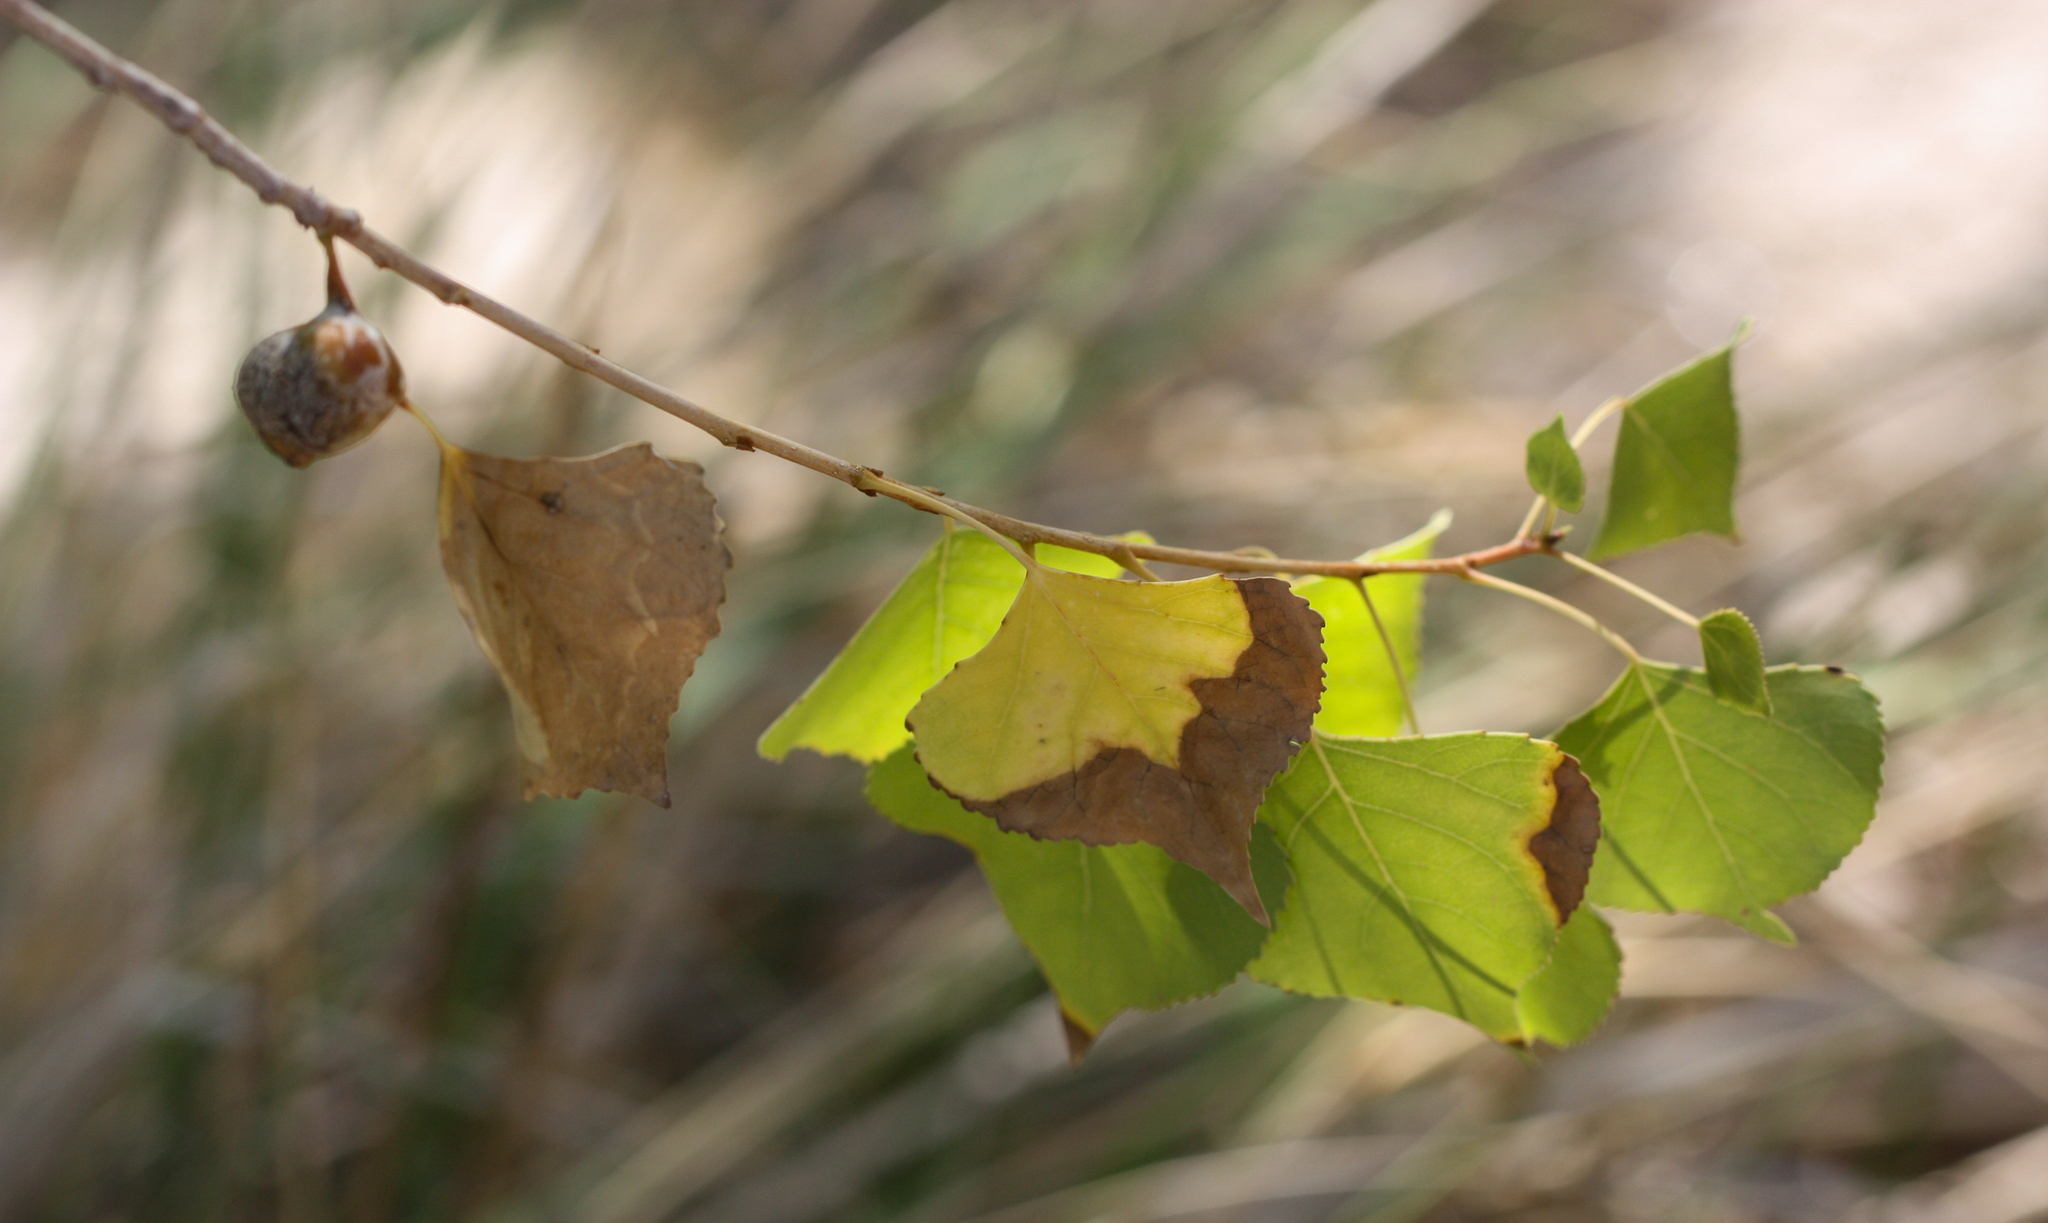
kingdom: Plantae
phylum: Tracheophyta
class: Magnoliopsida
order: Malpighiales
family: Salicaceae
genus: Populus
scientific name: Populus fremontii
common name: Fremont's cottonwood
